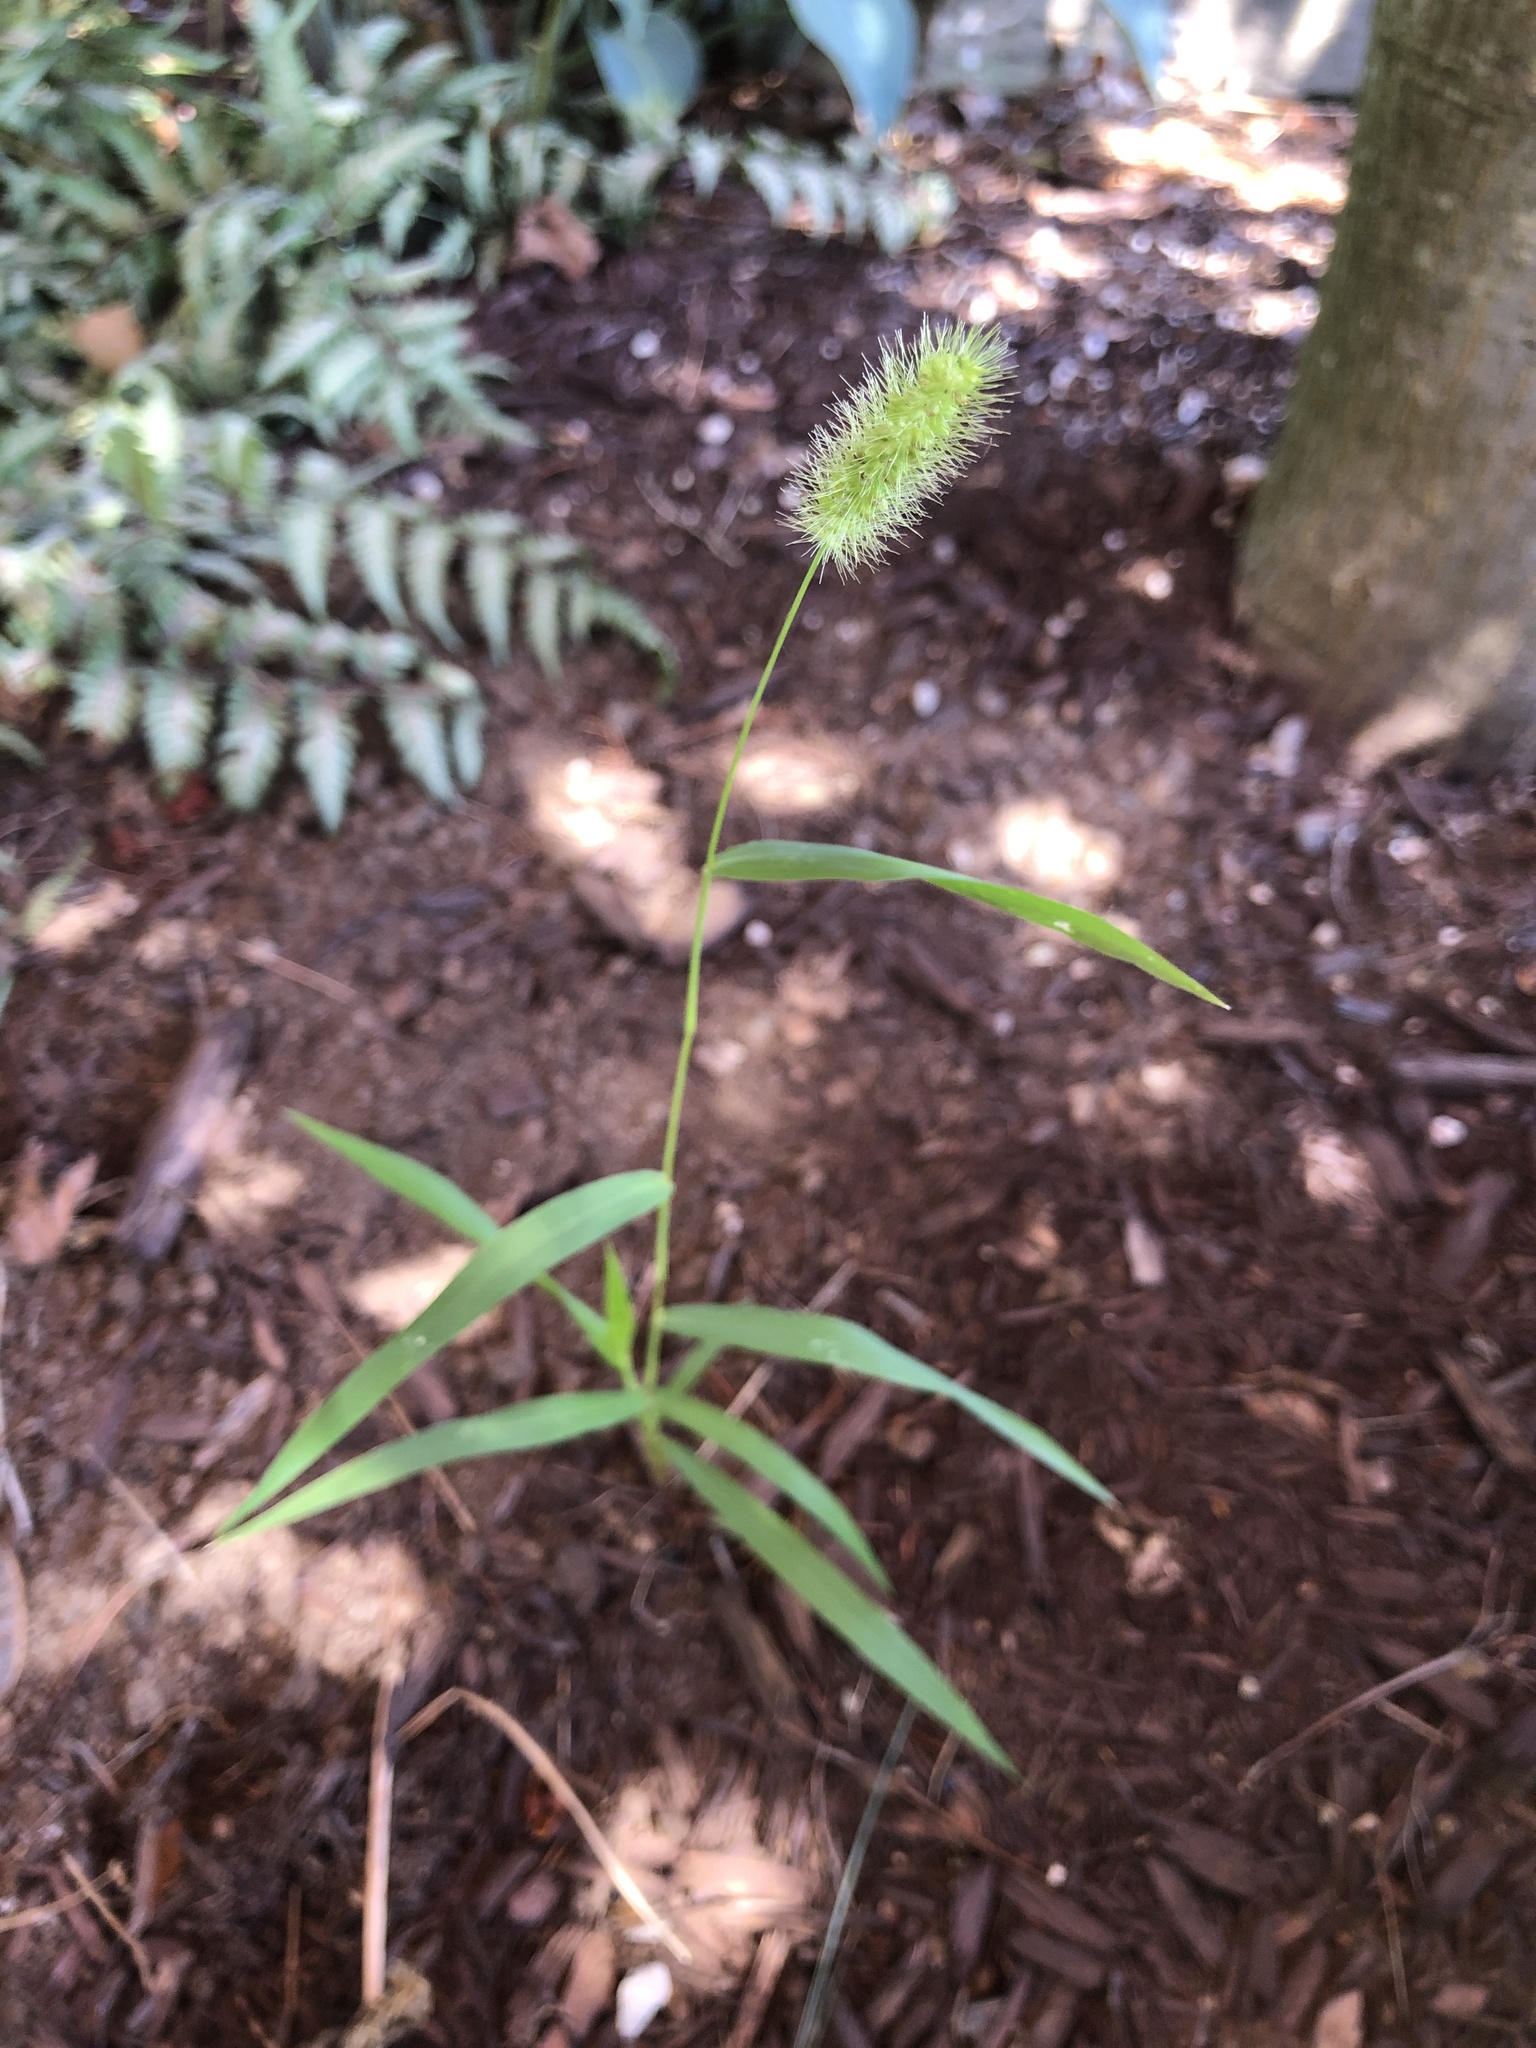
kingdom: Plantae
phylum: Tracheophyta
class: Liliopsida
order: Poales
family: Poaceae
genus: Setaria
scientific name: Setaria viridis
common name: Green bristlegrass
